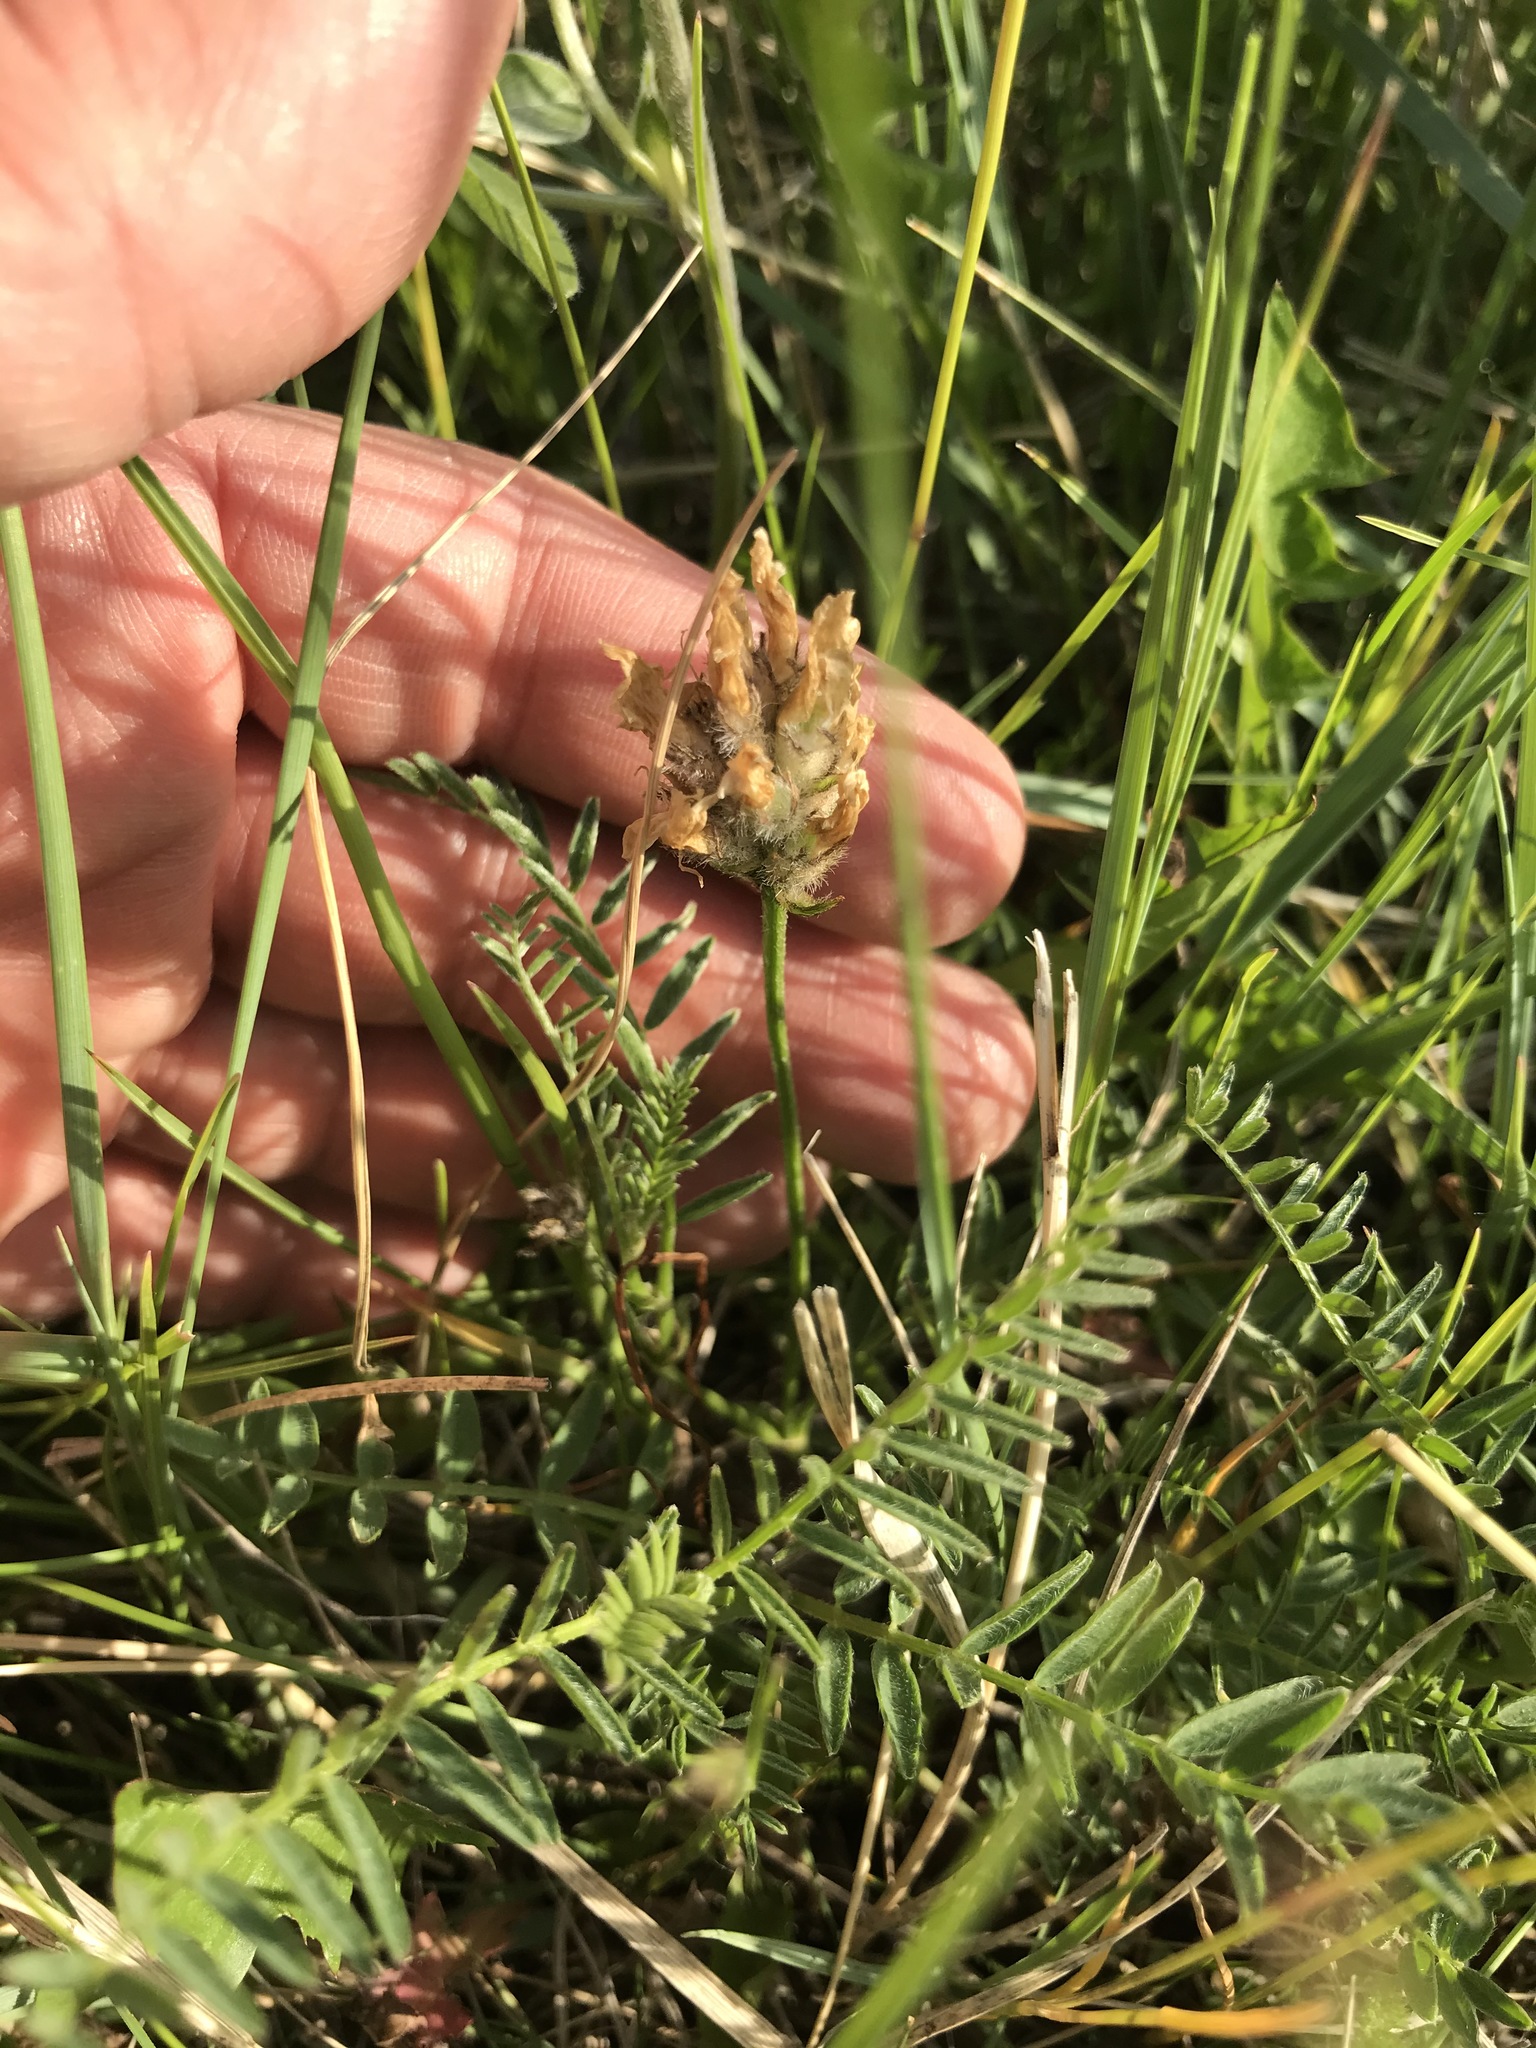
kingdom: Plantae
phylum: Tracheophyta
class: Magnoliopsida
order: Fabales
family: Fabaceae
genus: Astragalus
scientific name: Astragalus agrestis
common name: Field milk-vetch
